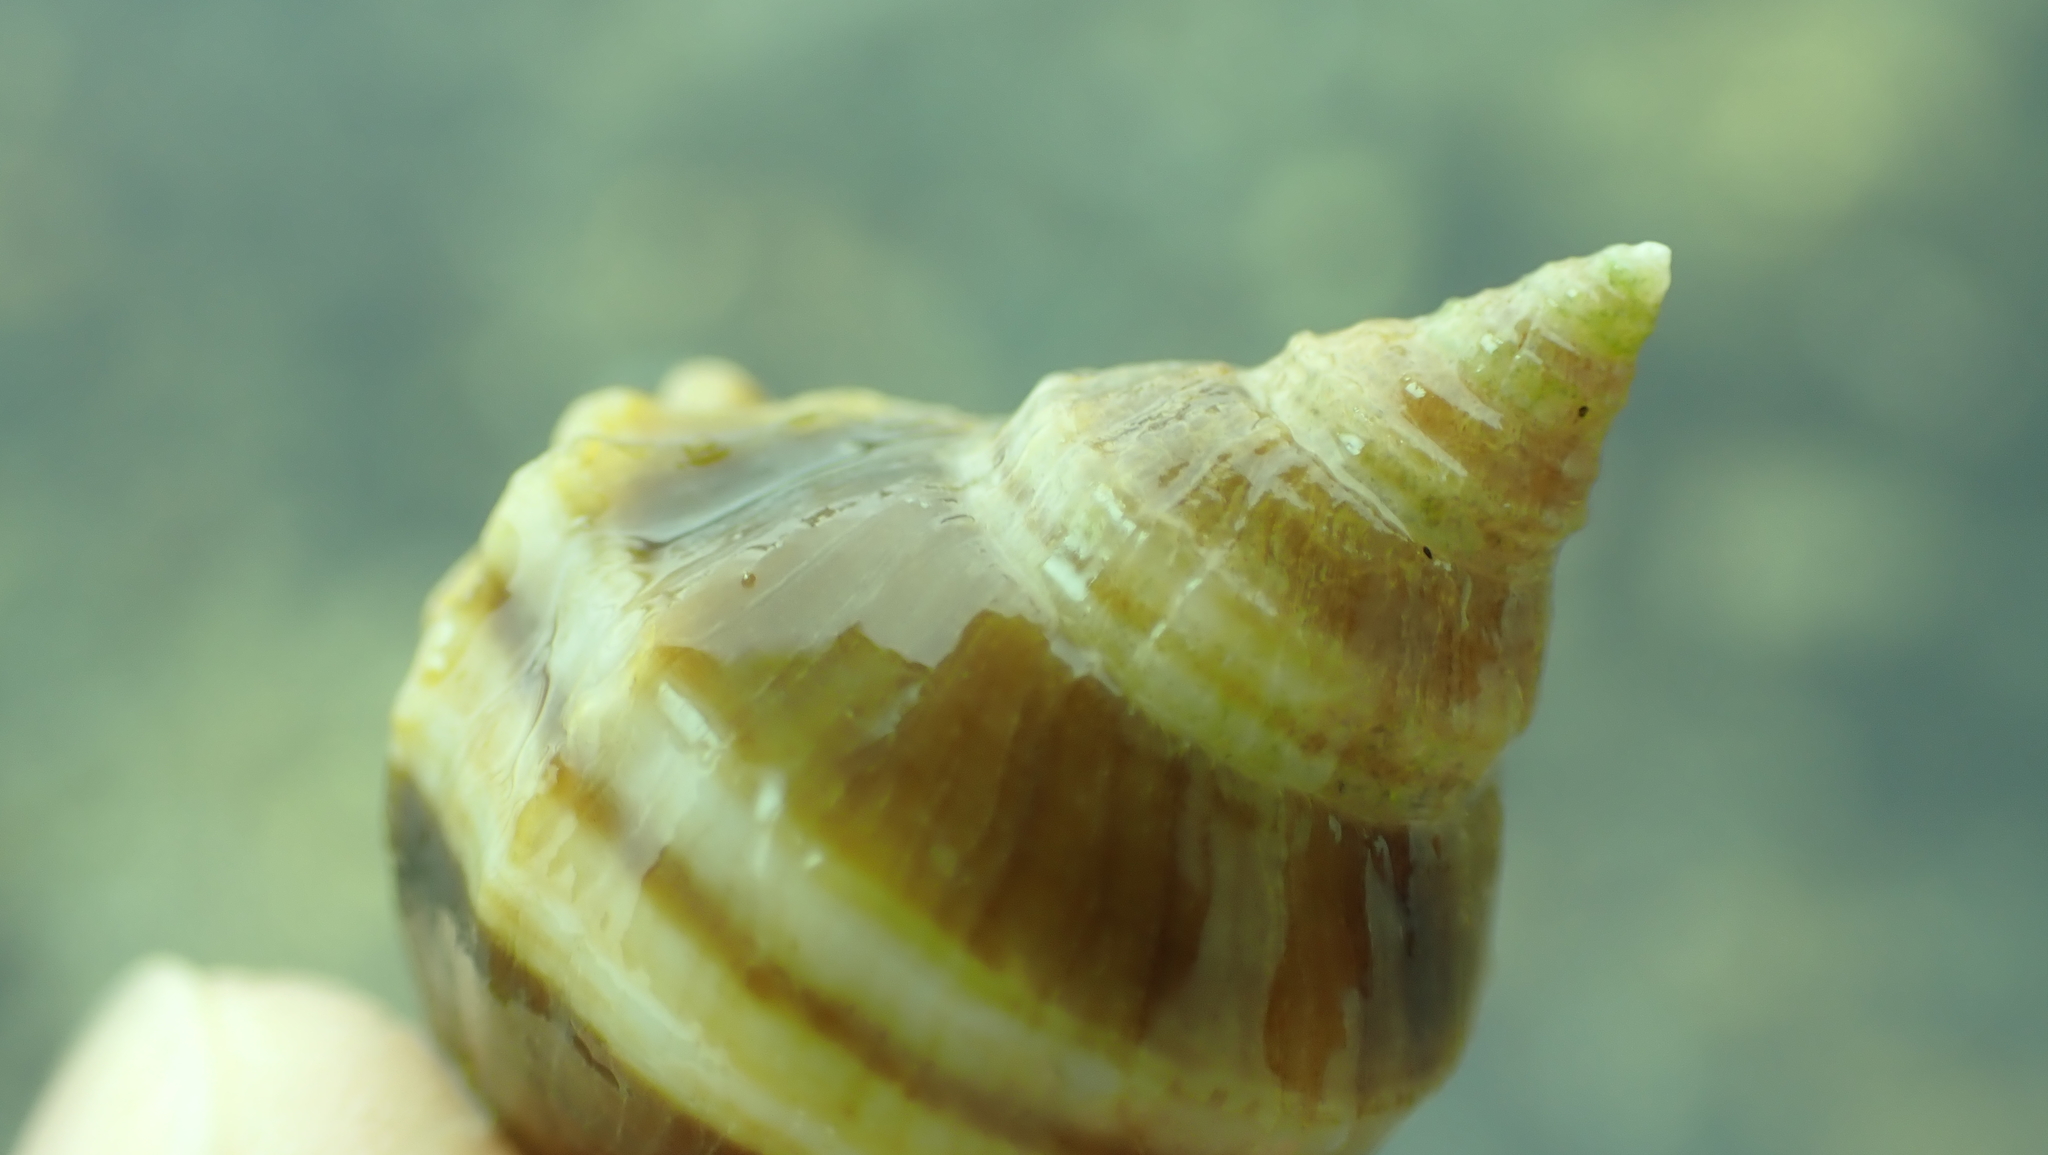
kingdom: Animalia
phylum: Mollusca
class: Gastropoda
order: Neogastropoda
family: Muricidae
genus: Nucella
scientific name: Nucella lamellosa
